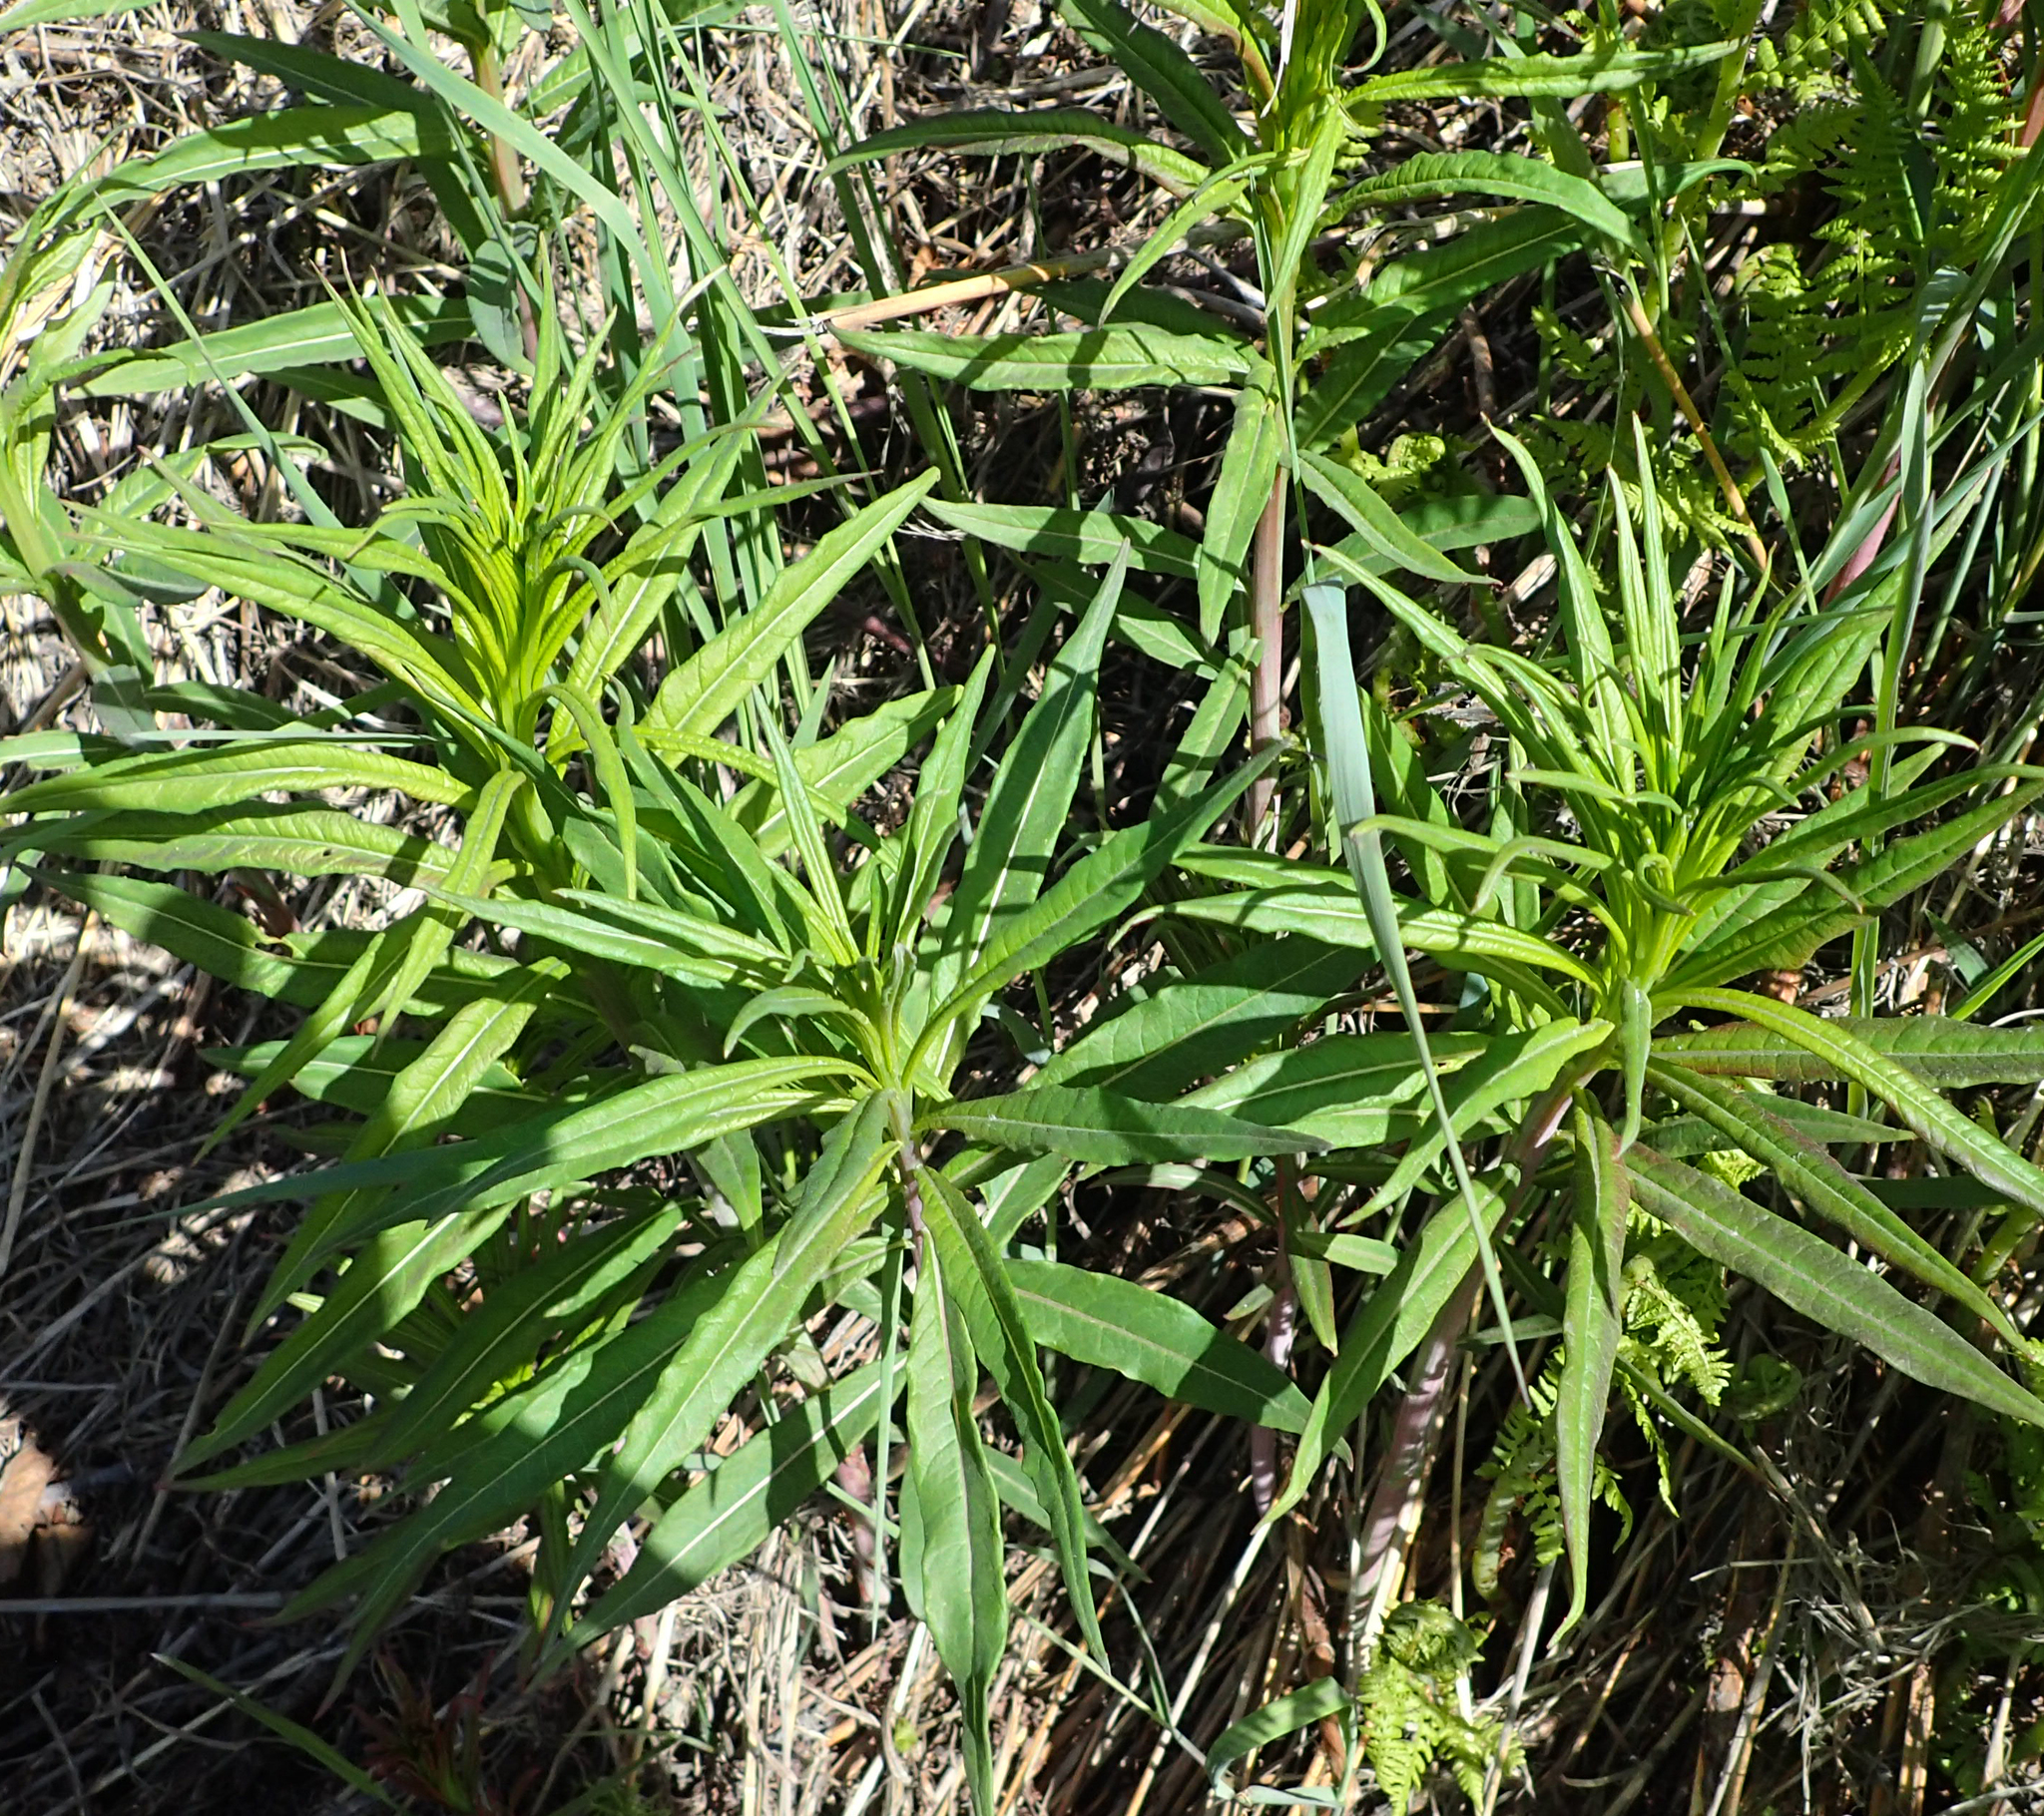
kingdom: Plantae
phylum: Tracheophyta
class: Magnoliopsida
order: Myrtales
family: Onagraceae
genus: Chamaenerion
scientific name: Chamaenerion angustifolium
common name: Fireweed
